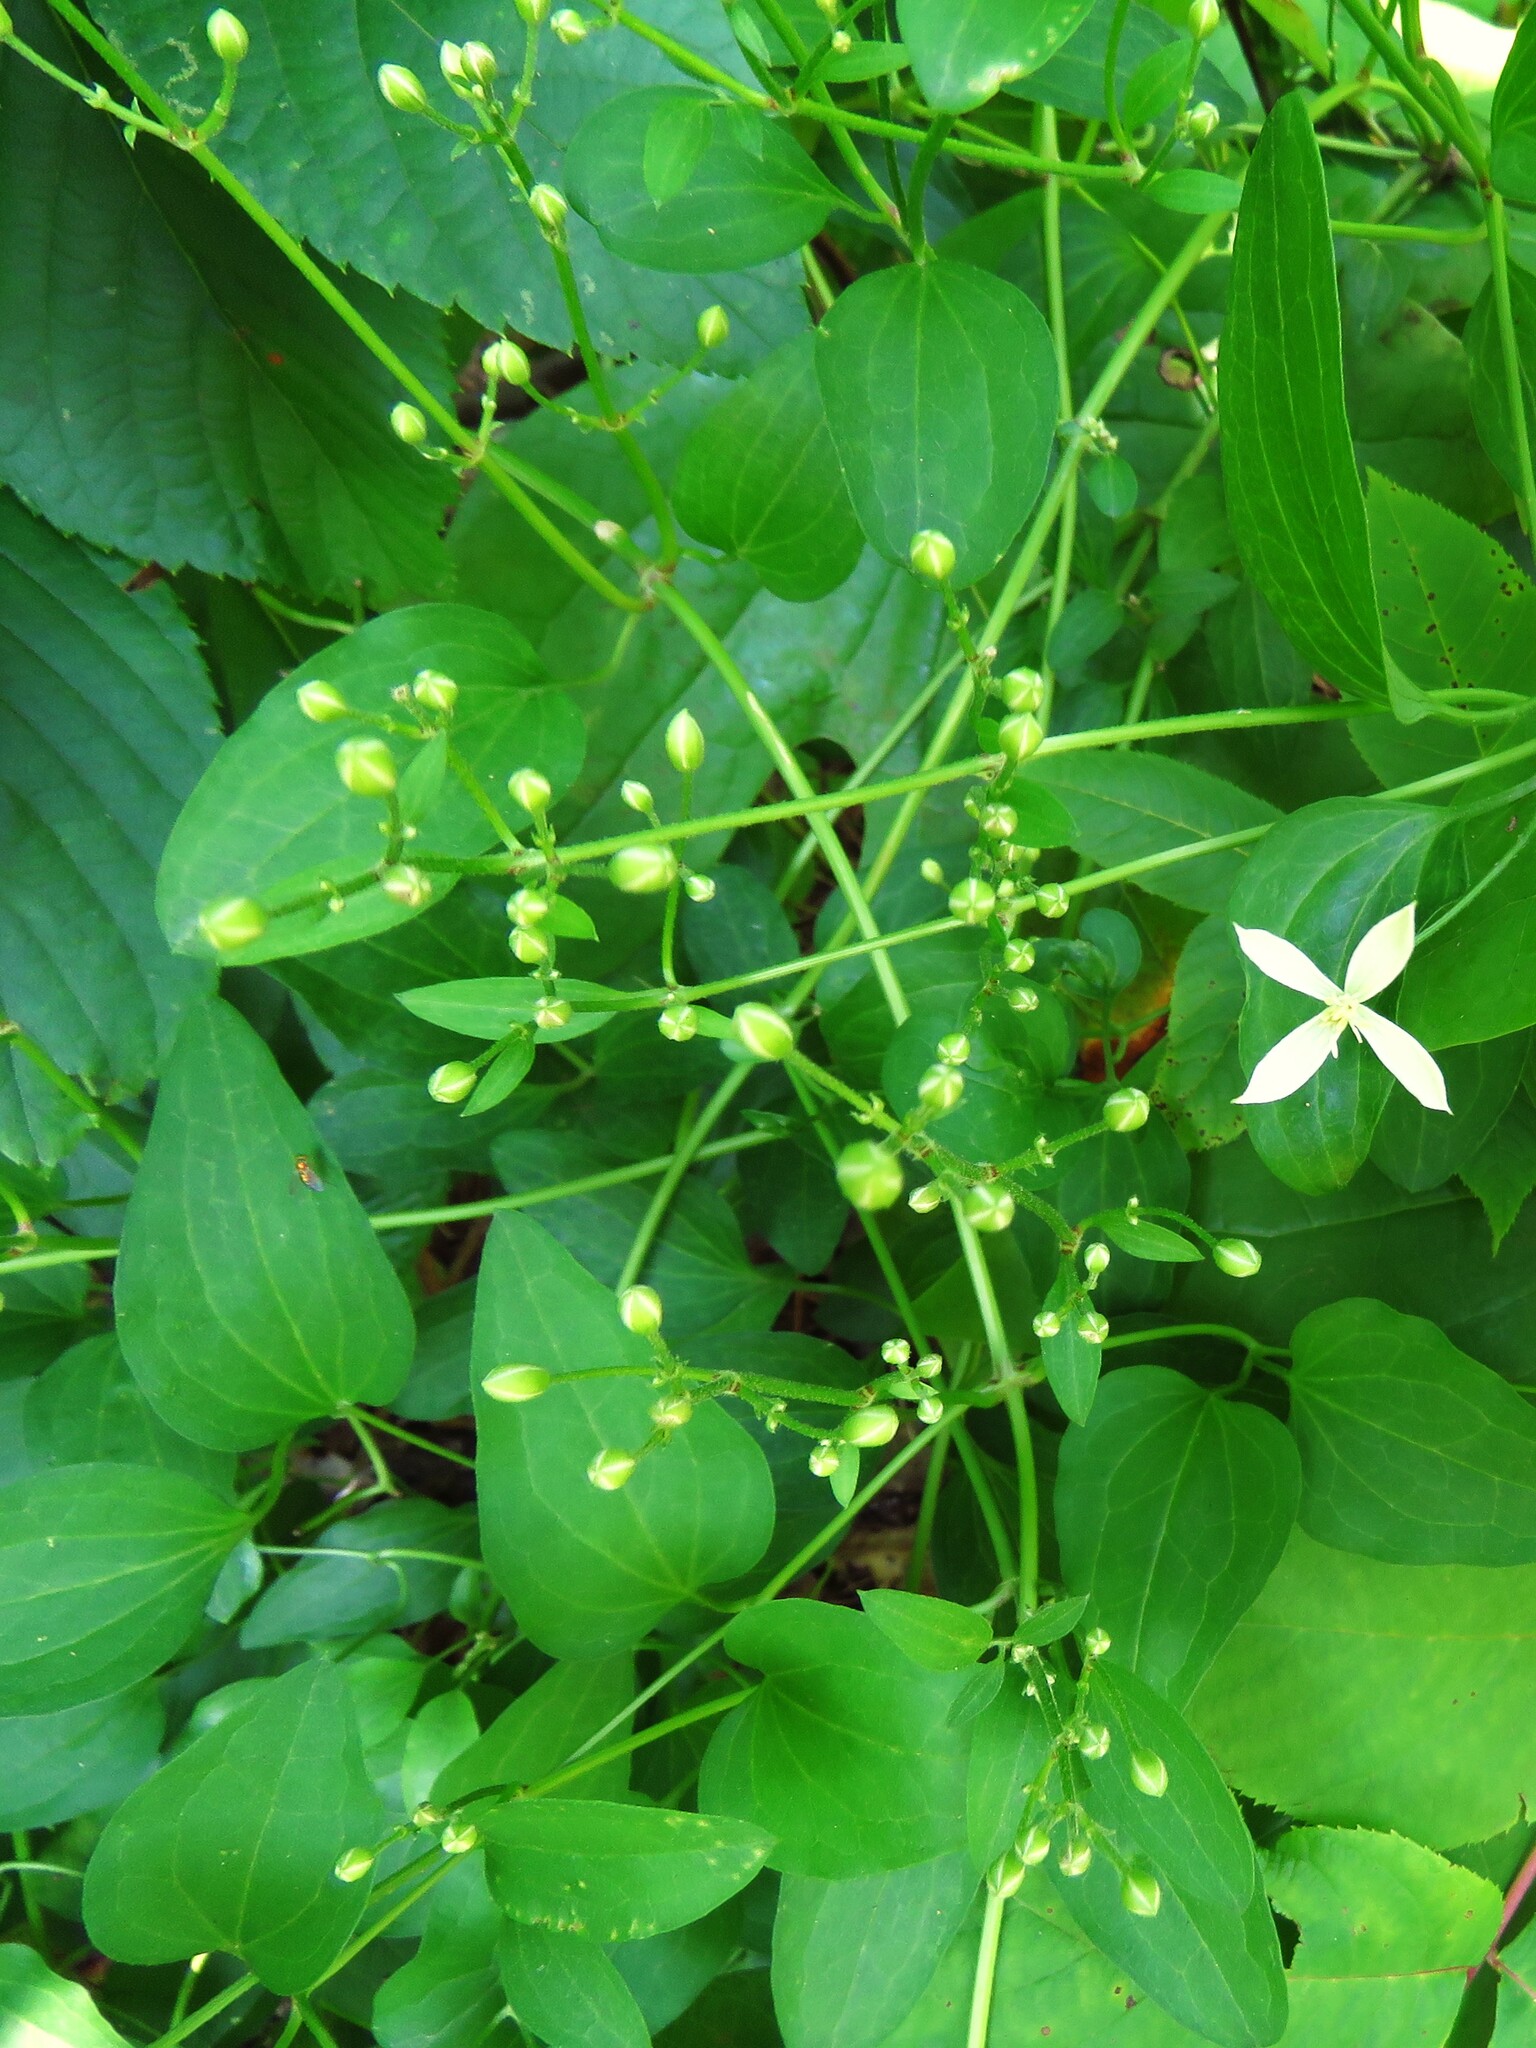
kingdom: Plantae
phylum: Tracheophyta
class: Magnoliopsida
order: Ranunculales
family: Ranunculaceae
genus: Clematis
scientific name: Clematis terniflora
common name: Sweet autumn clematis
